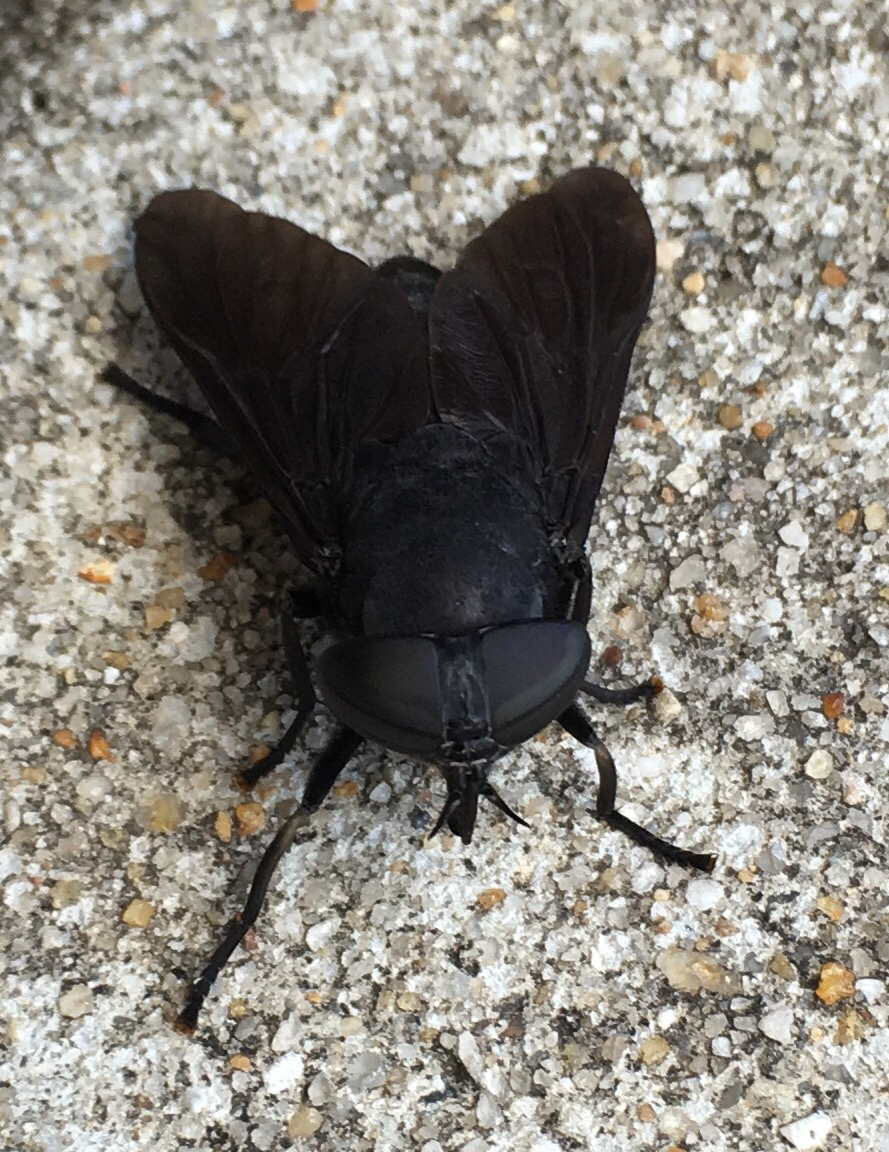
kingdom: Animalia
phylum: Arthropoda
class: Insecta
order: Diptera
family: Tabanidae
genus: Tabanus
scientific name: Tabanus atratus
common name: Black horse fly
